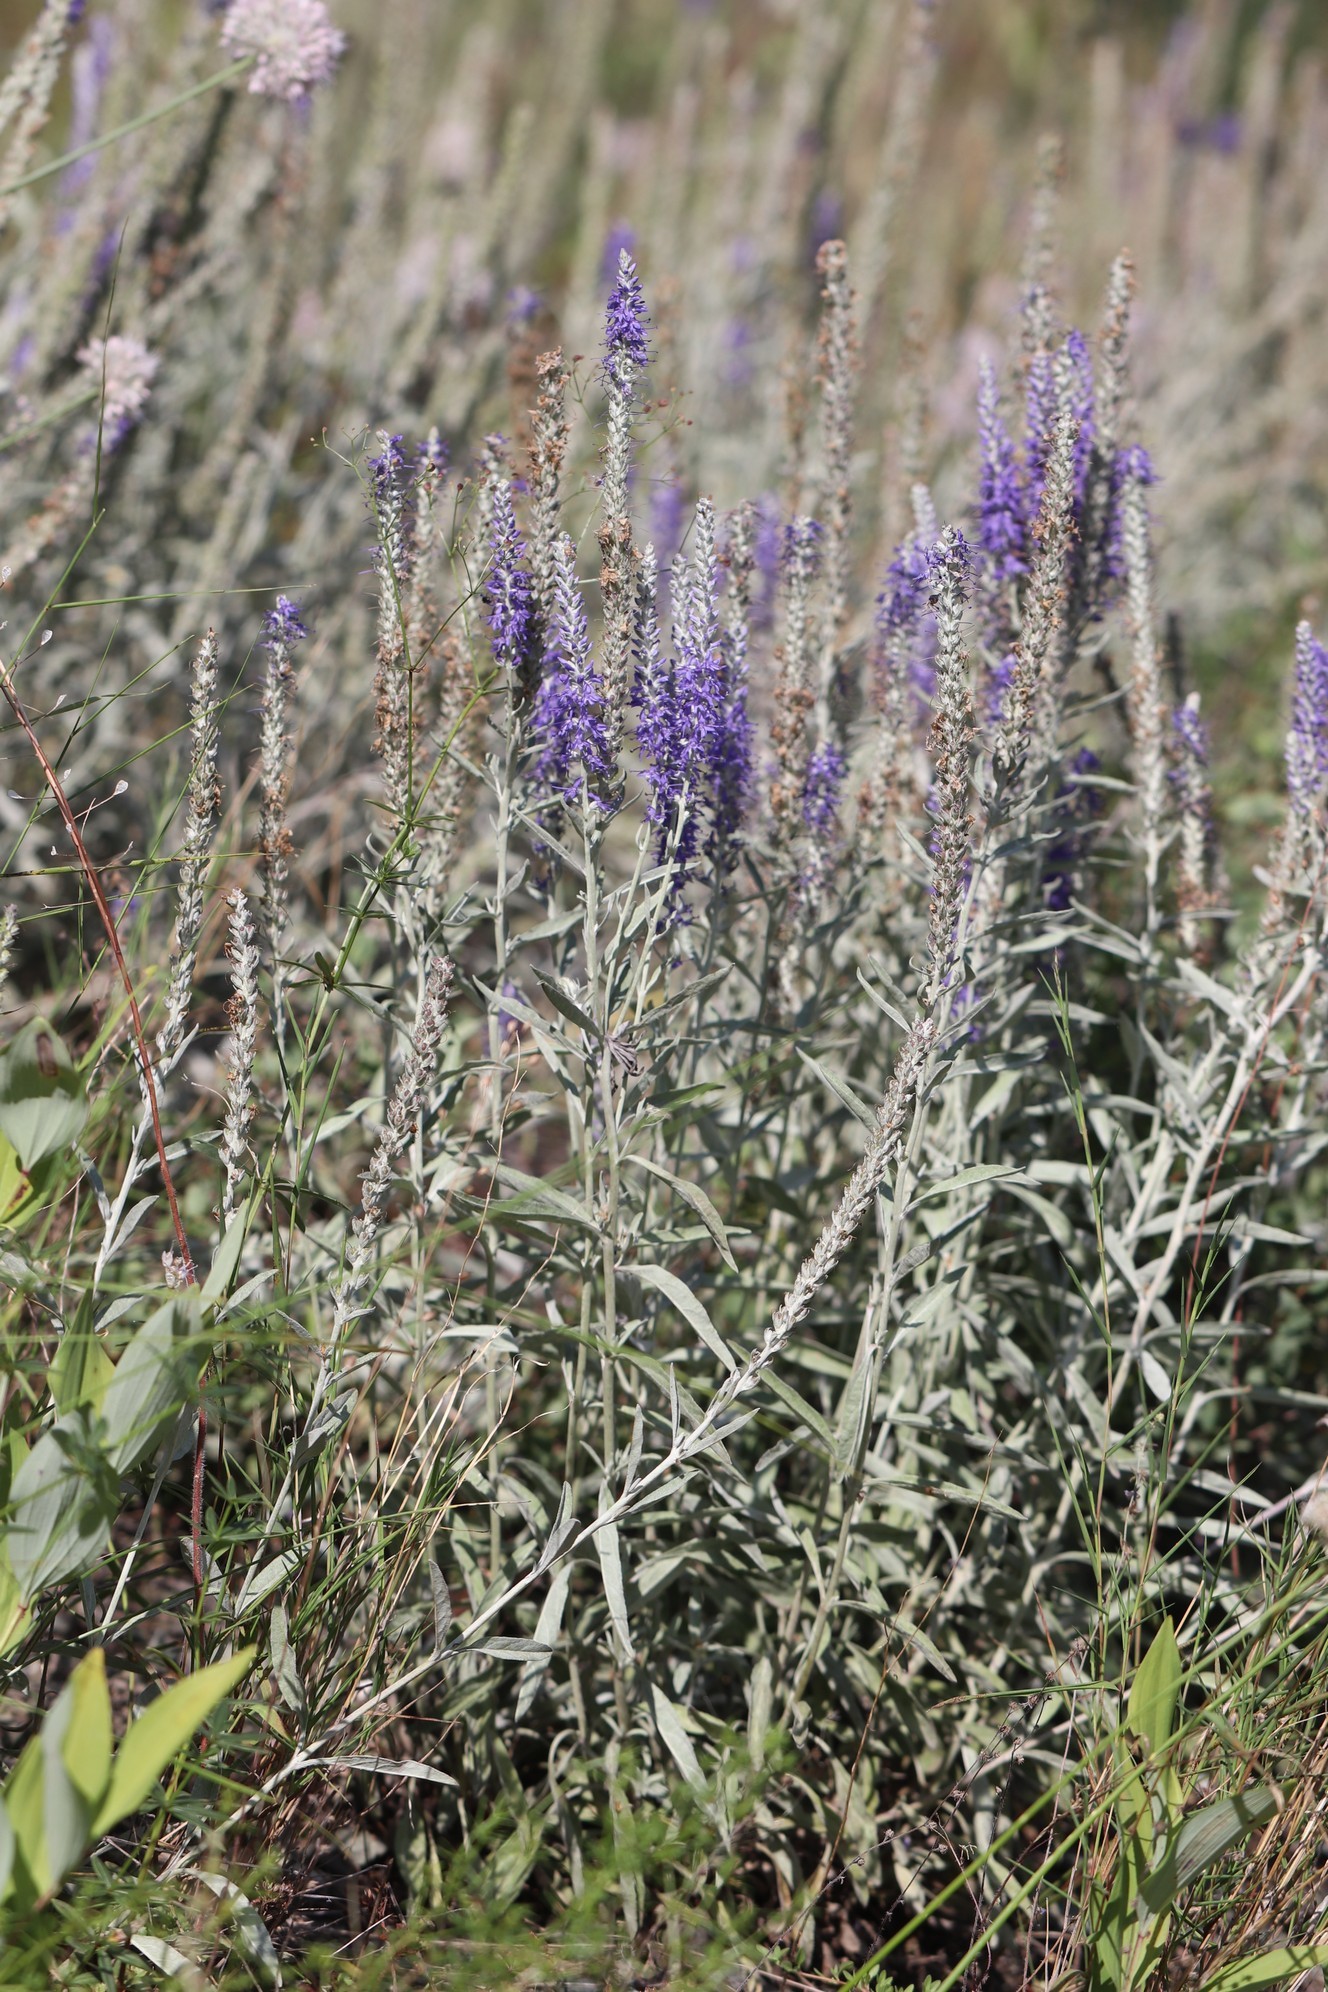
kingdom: Plantae
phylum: Tracheophyta
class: Magnoliopsida
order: Lamiales
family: Plantaginaceae
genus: Veronica
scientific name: Veronica incana
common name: Silver speedwell
